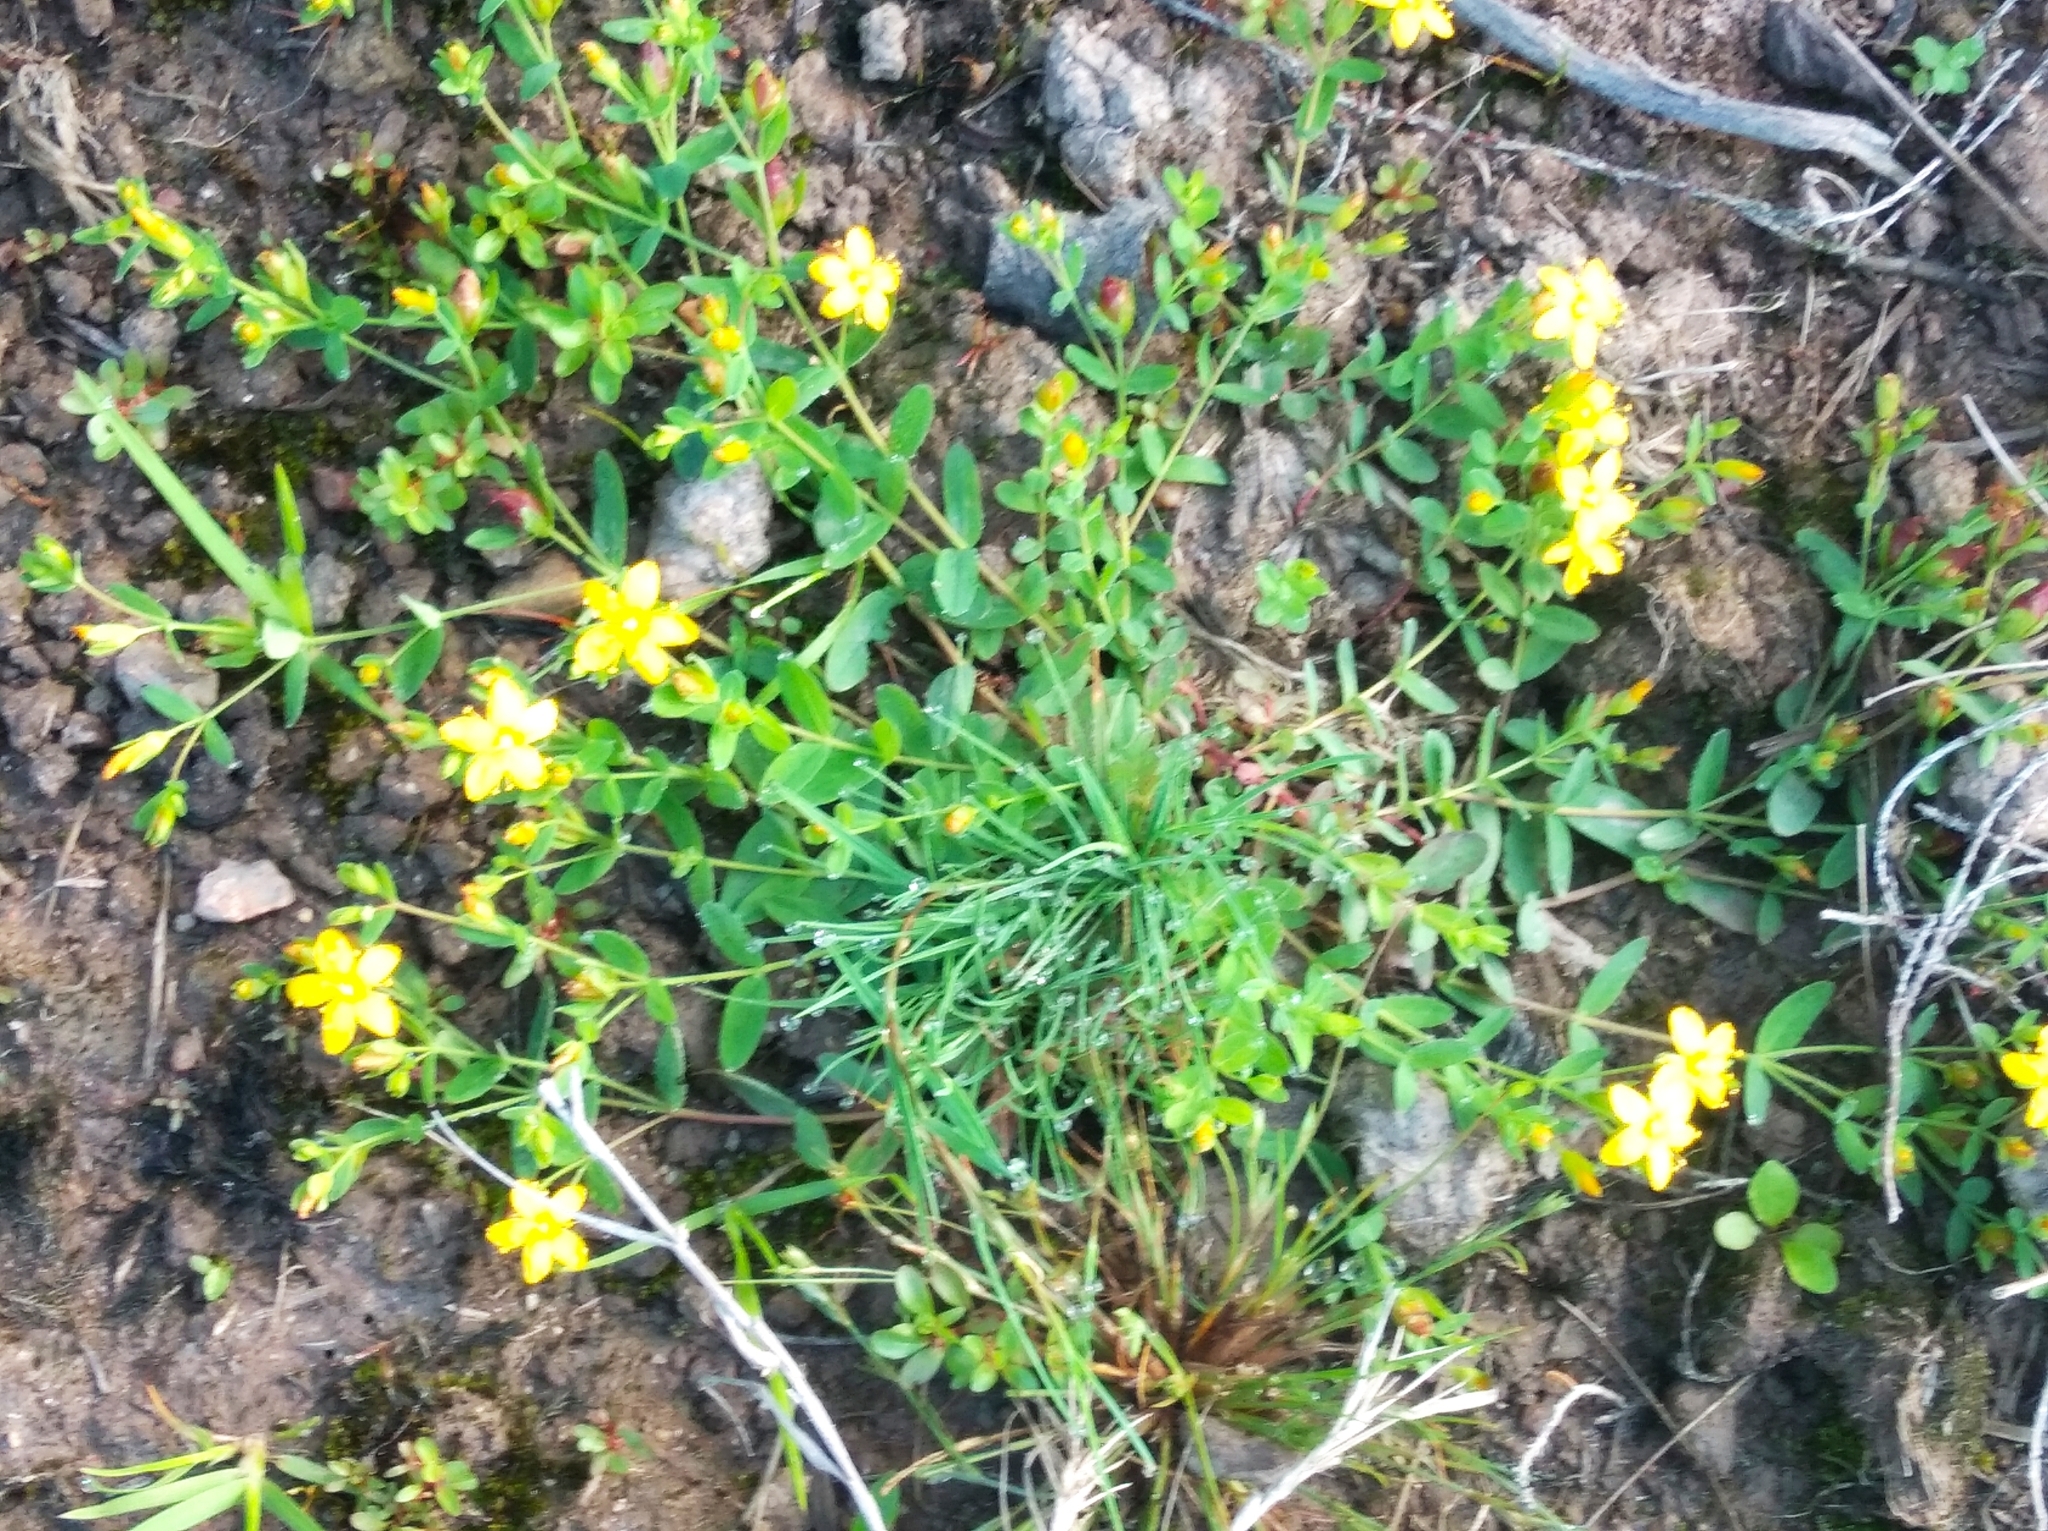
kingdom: Plantae
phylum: Tracheophyta
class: Magnoliopsida
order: Malpighiales
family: Hypericaceae
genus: Hypericum
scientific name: Hypericum humifusum
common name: Trailing st. john's-wort
